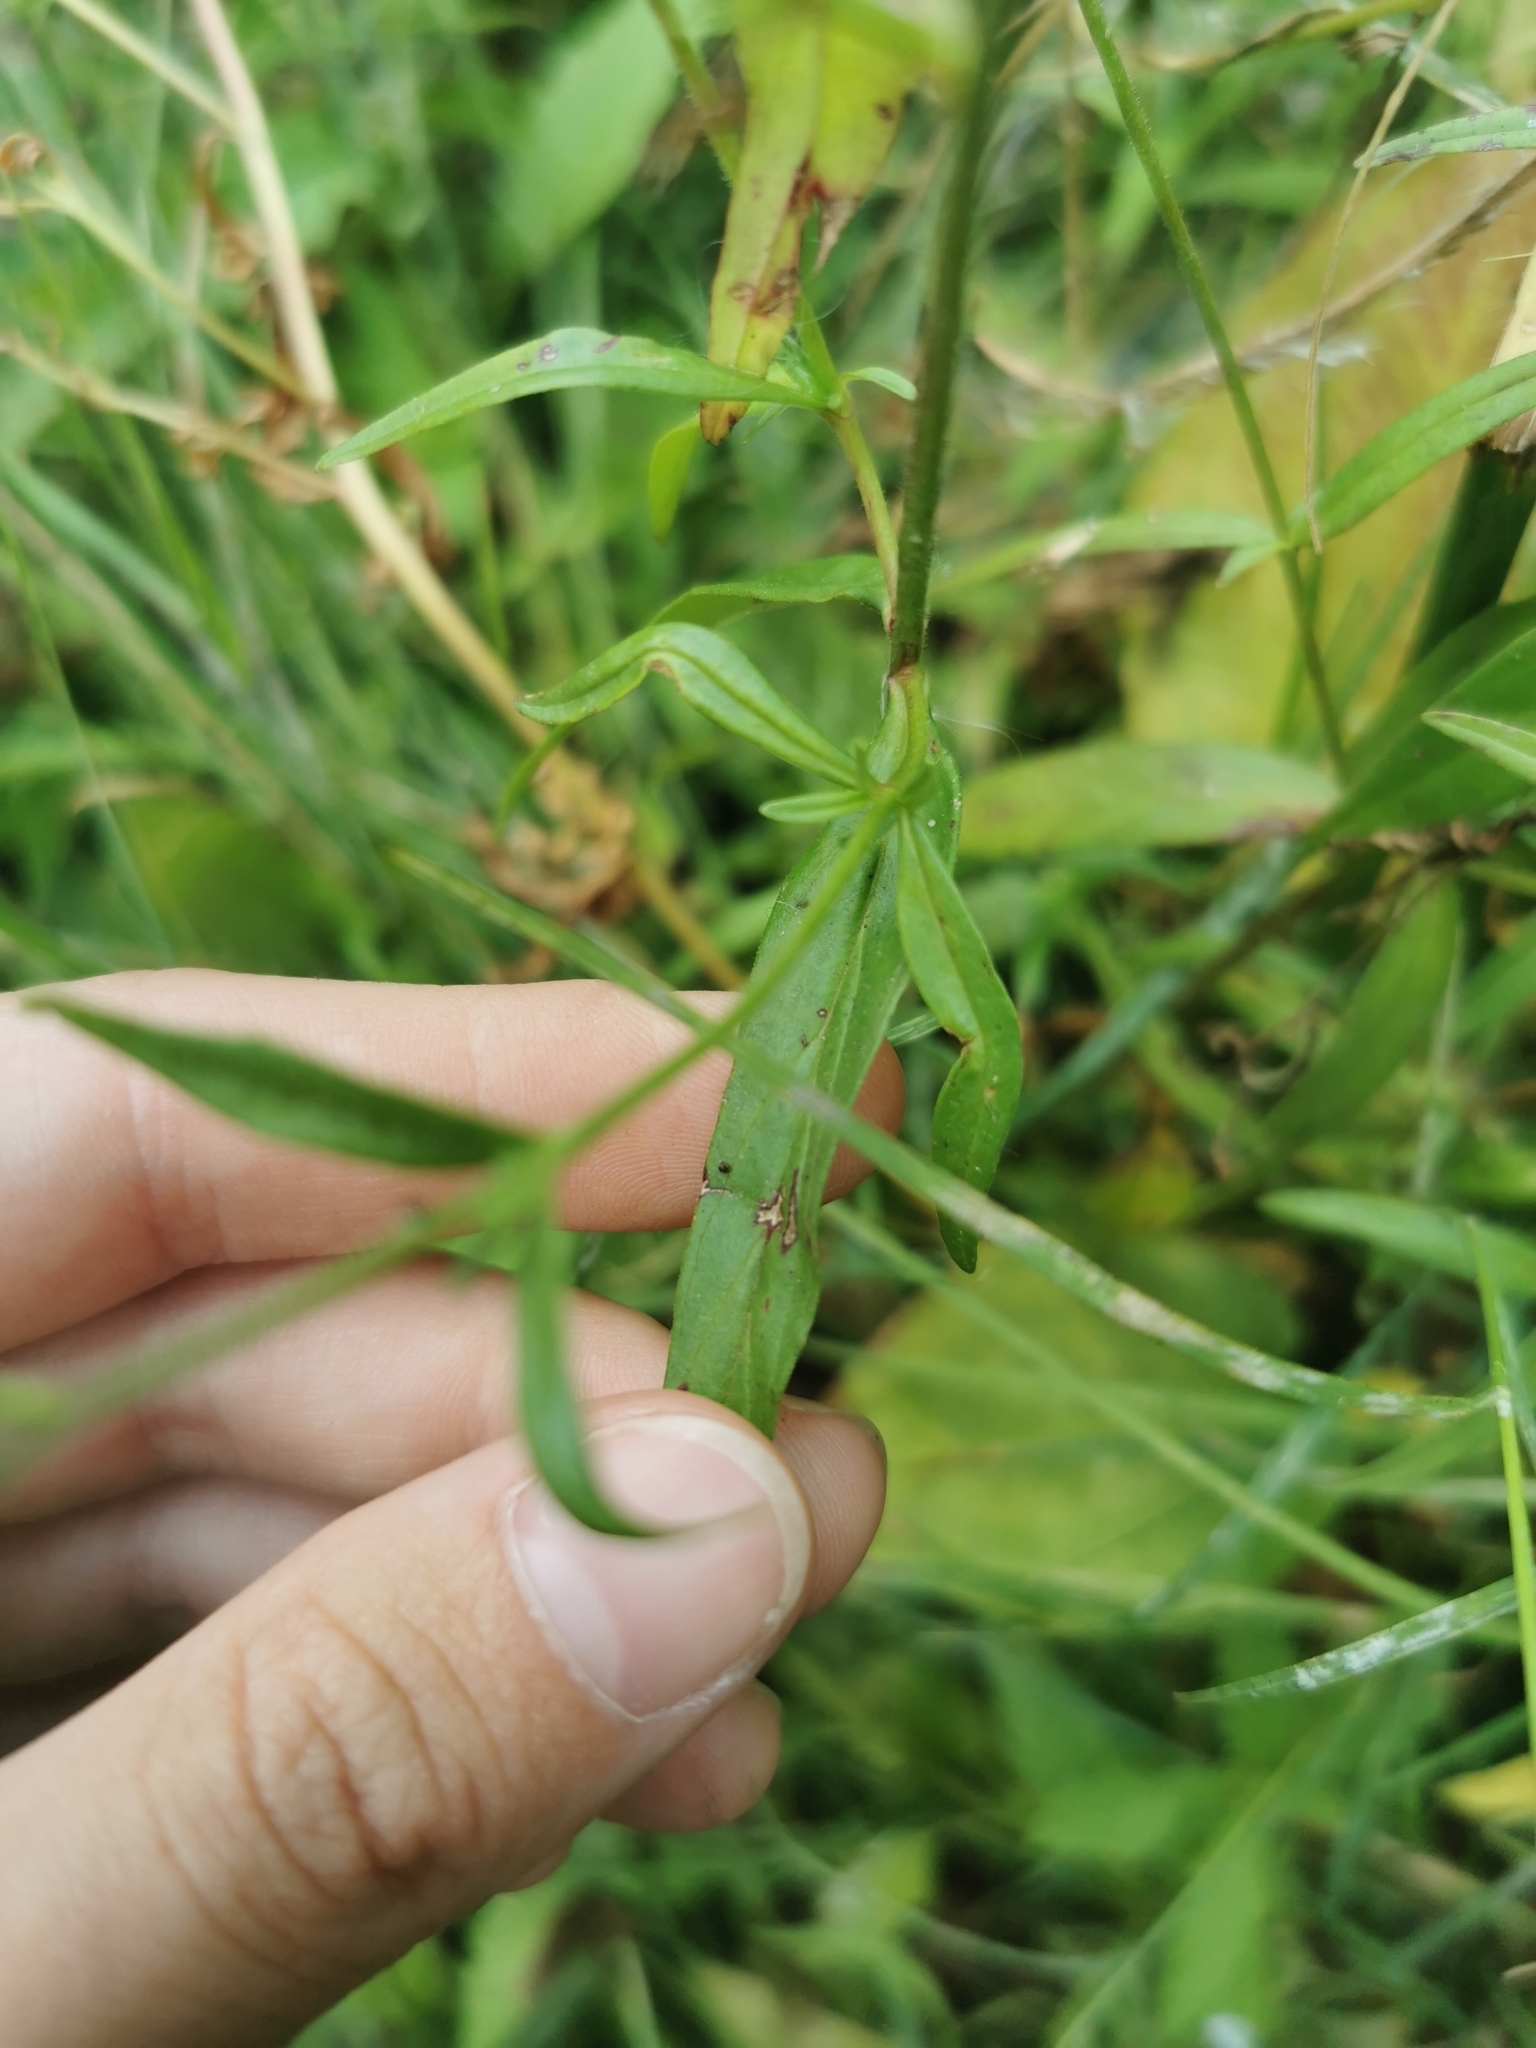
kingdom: Plantae
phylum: Tracheophyta
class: Magnoliopsida
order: Myrtales
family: Onagraceae
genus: Epilobium
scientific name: Epilobium palustre
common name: Marsh willowherb
